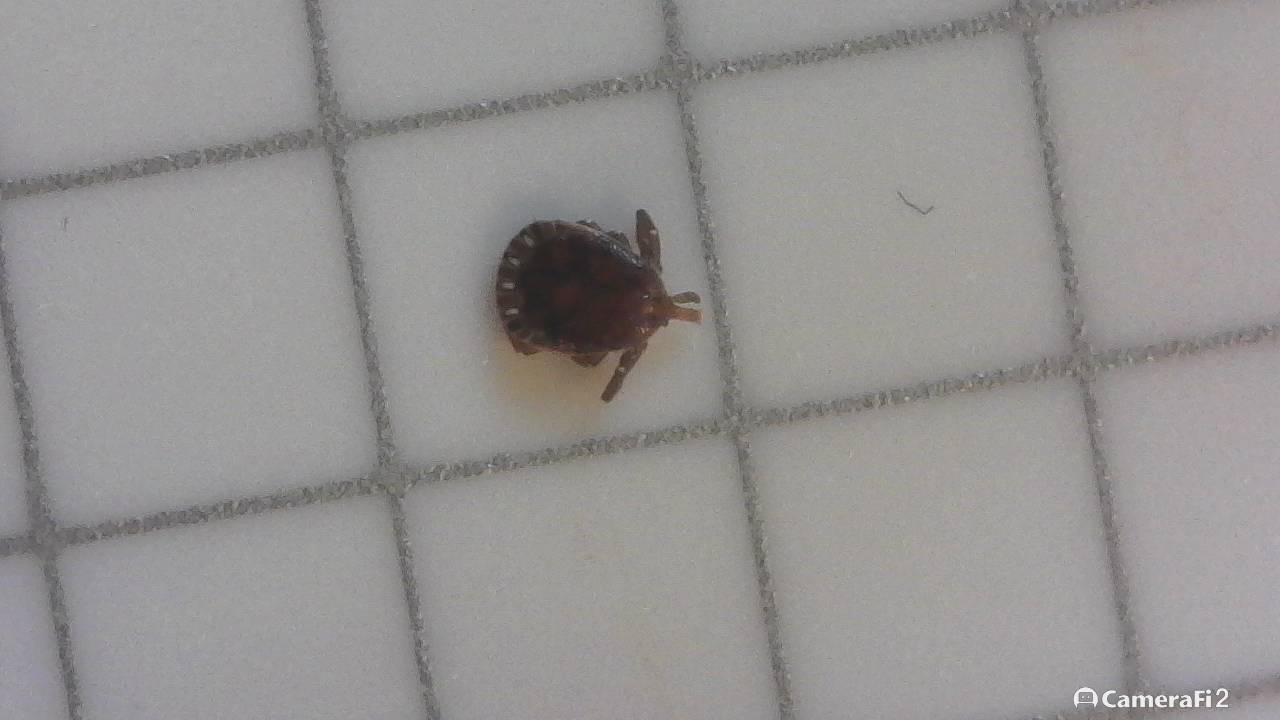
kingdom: Animalia
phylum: Arthropoda
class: Arachnida
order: Ixodida
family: Ixodidae
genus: Amblyomma
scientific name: Amblyomma americanum
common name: Lone star tick
